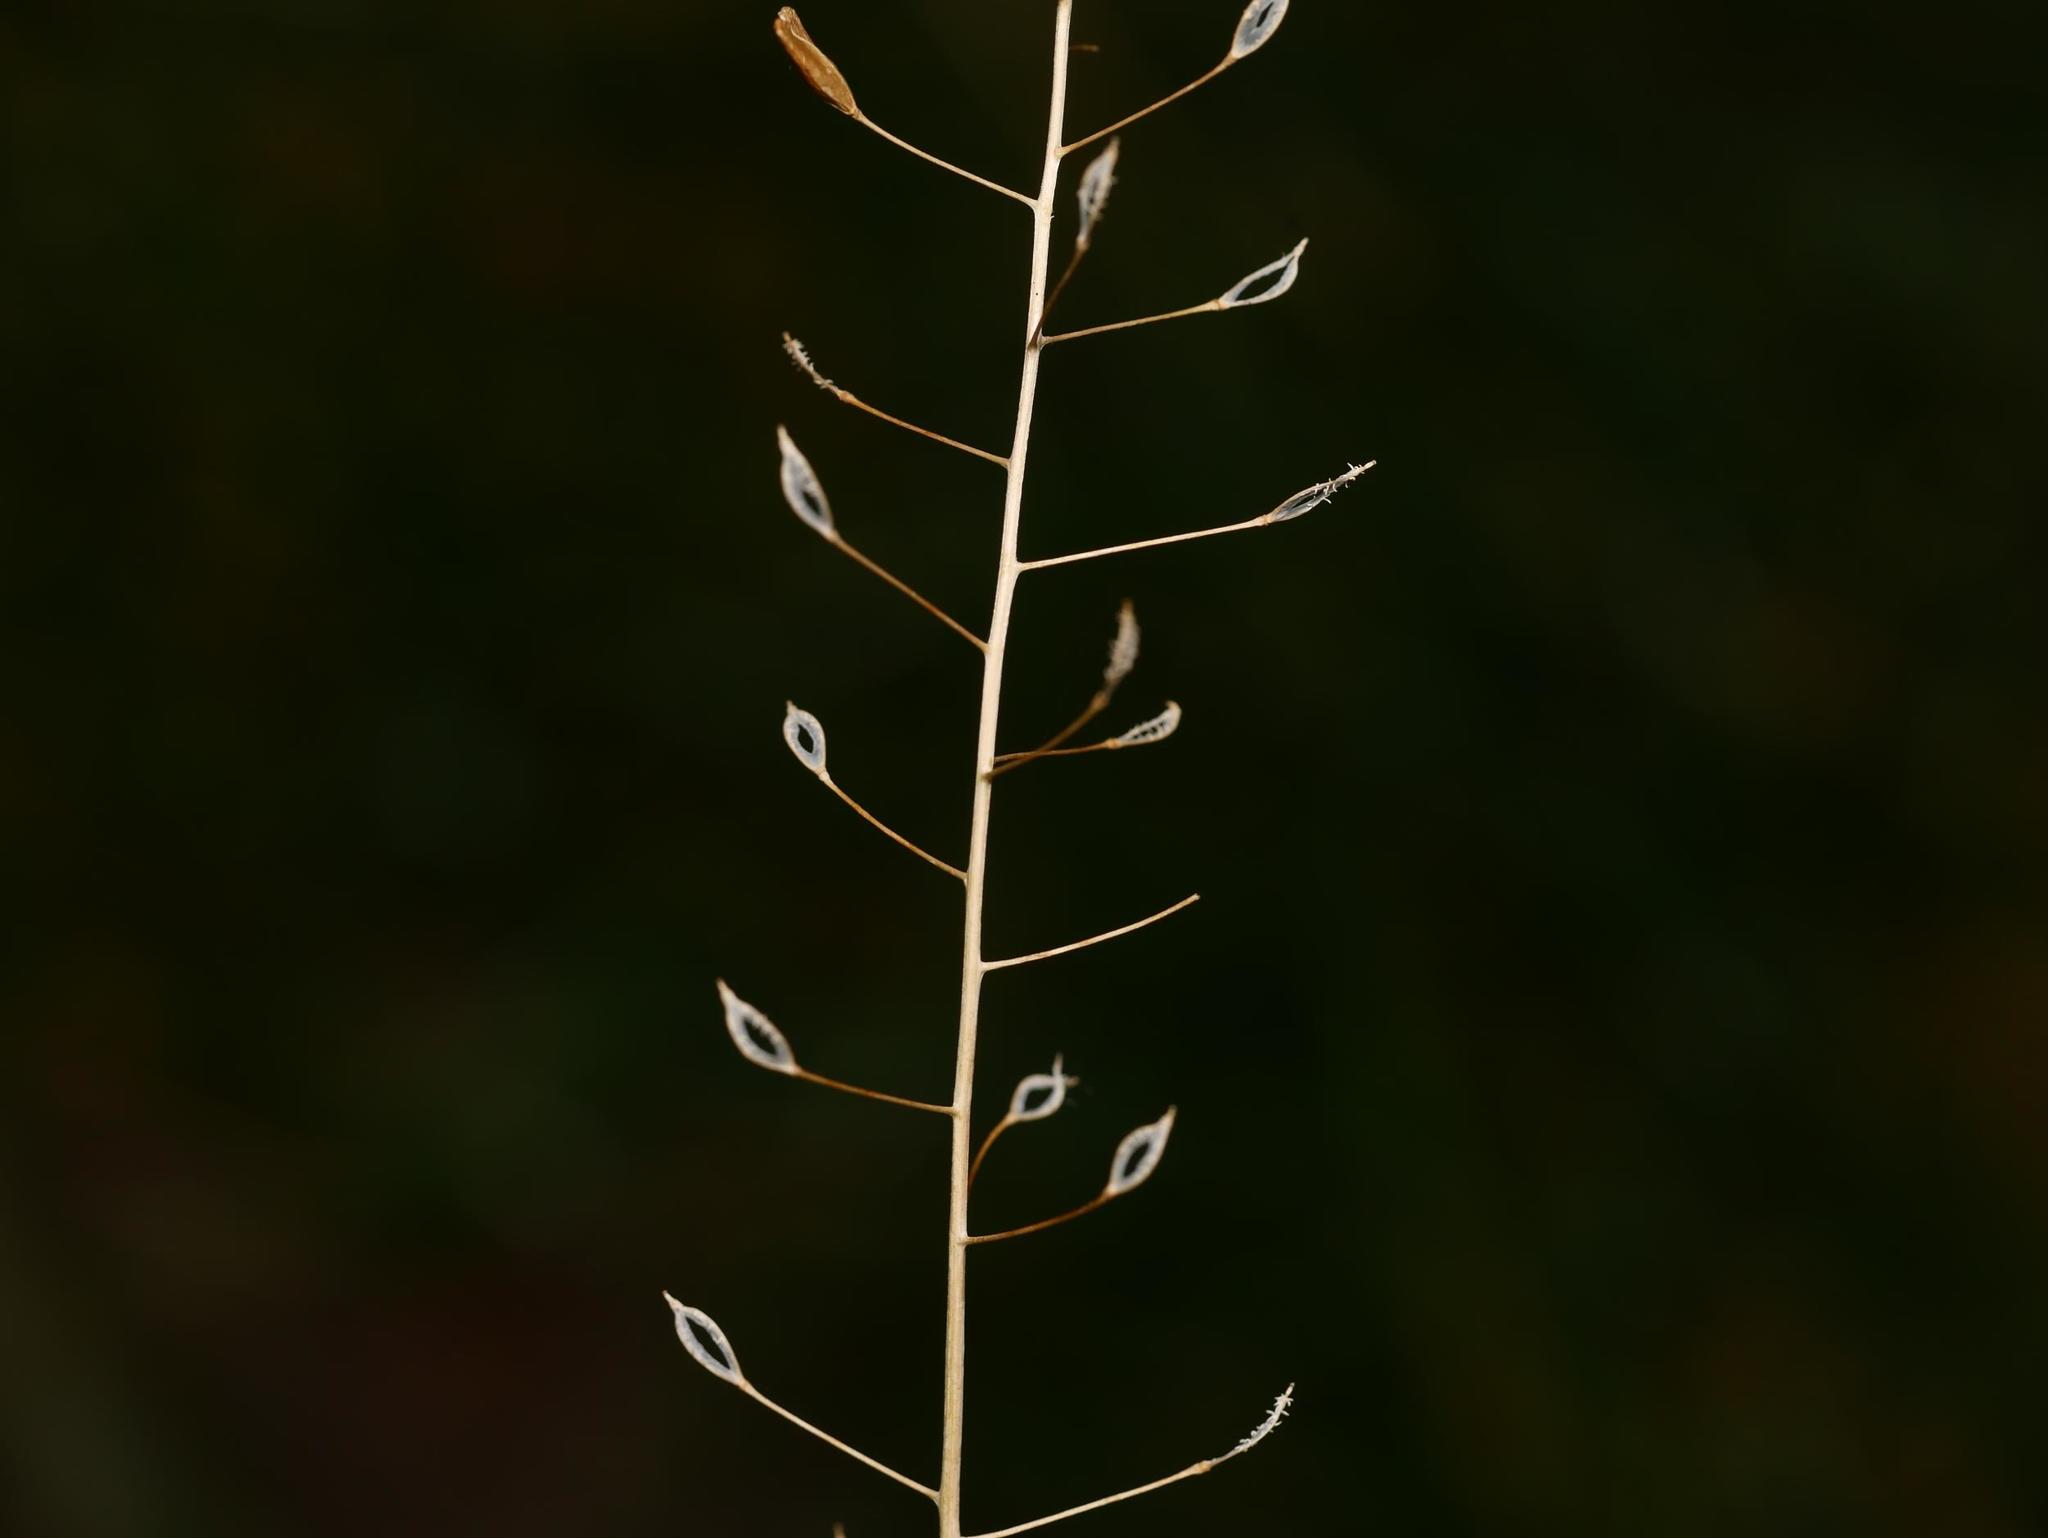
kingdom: Plantae
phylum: Tracheophyta
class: Magnoliopsida
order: Brassicales
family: Brassicaceae
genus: Capsella
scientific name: Capsella bursa-pastoris
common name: Shepherd's purse
